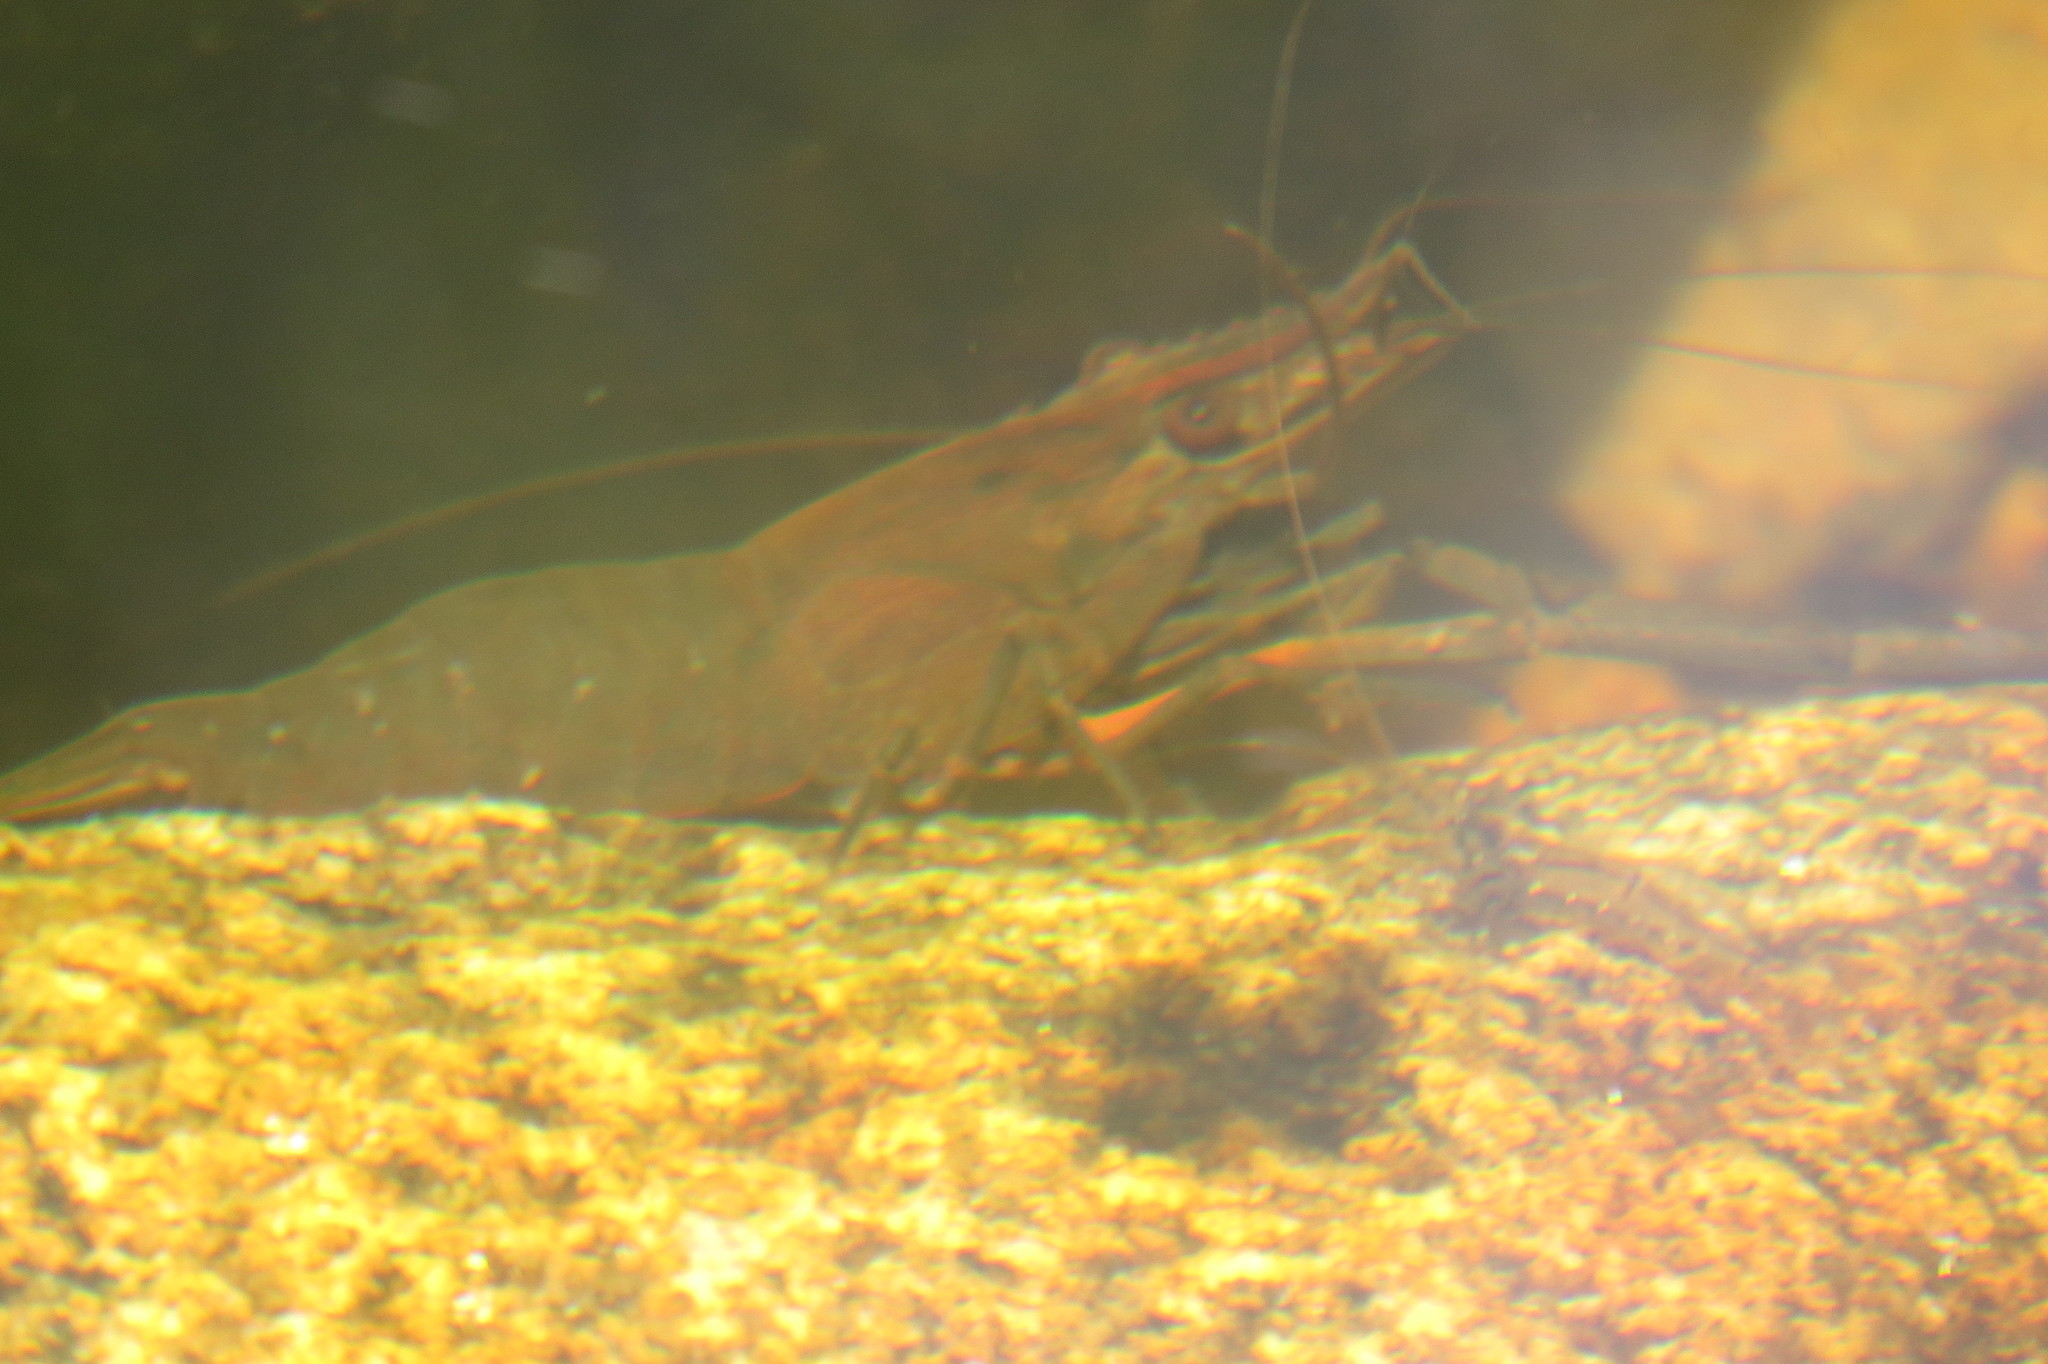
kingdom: Animalia
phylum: Arthropoda
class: Malacostraca
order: Decapoda
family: Palaemonidae
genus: Macrobrachium
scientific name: Macrobrachium tolmerum
